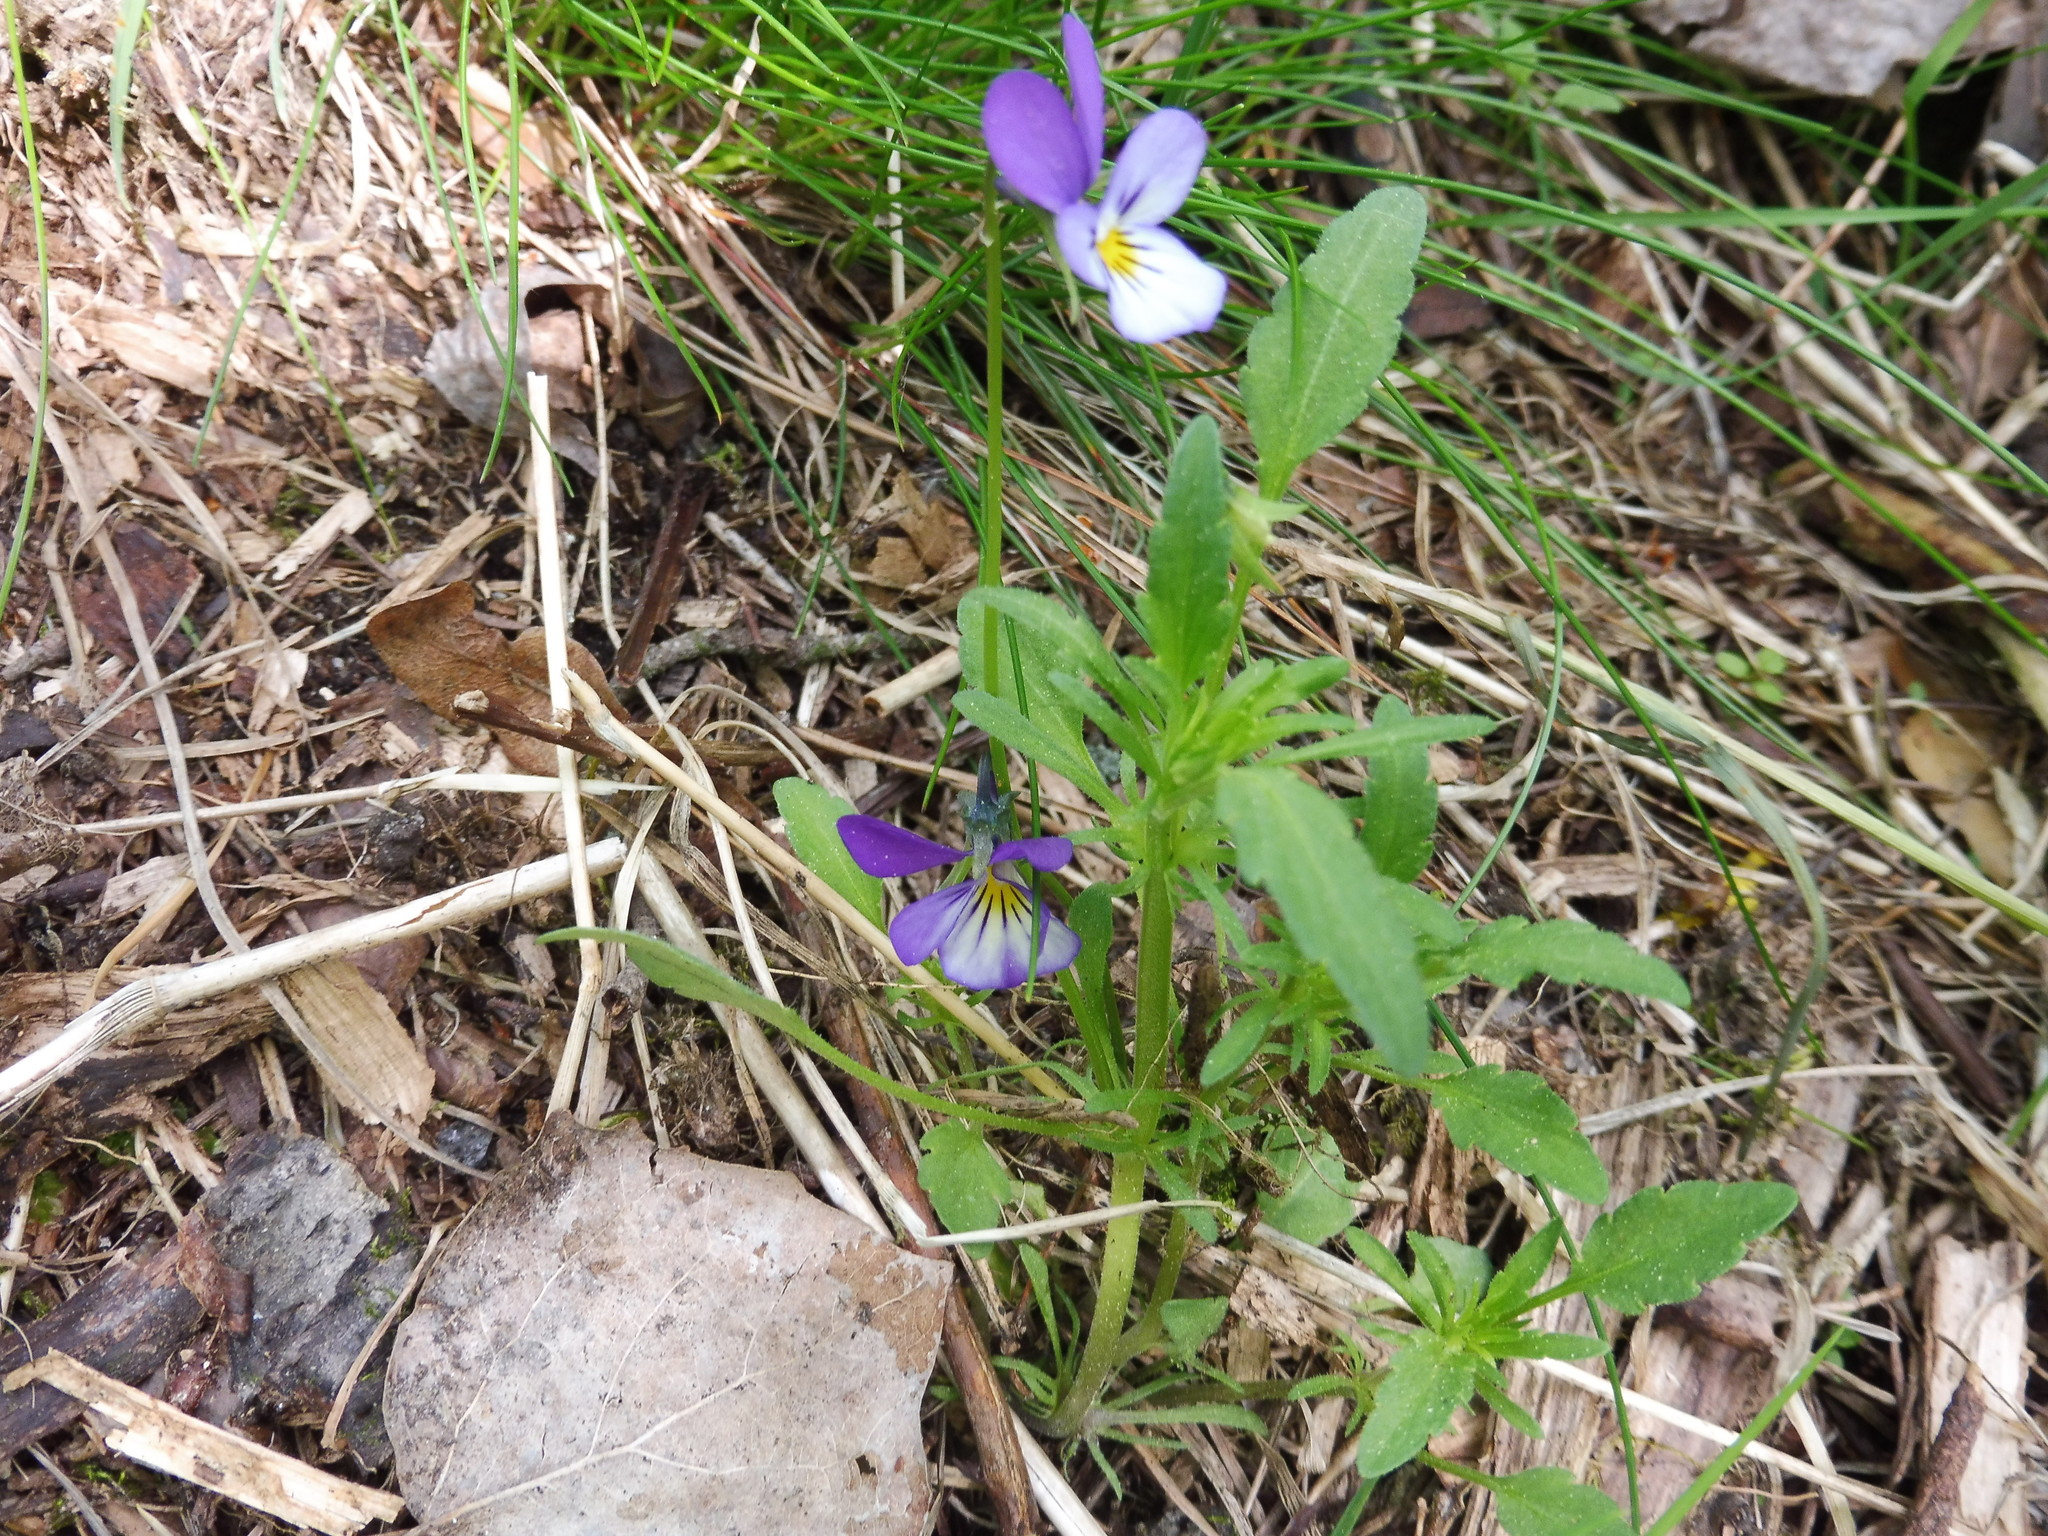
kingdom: Plantae
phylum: Tracheophyta
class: Magnoliopsida
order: Malpighiales
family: Violaceae
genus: Viola
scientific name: Viola tricolor
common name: Pansy
